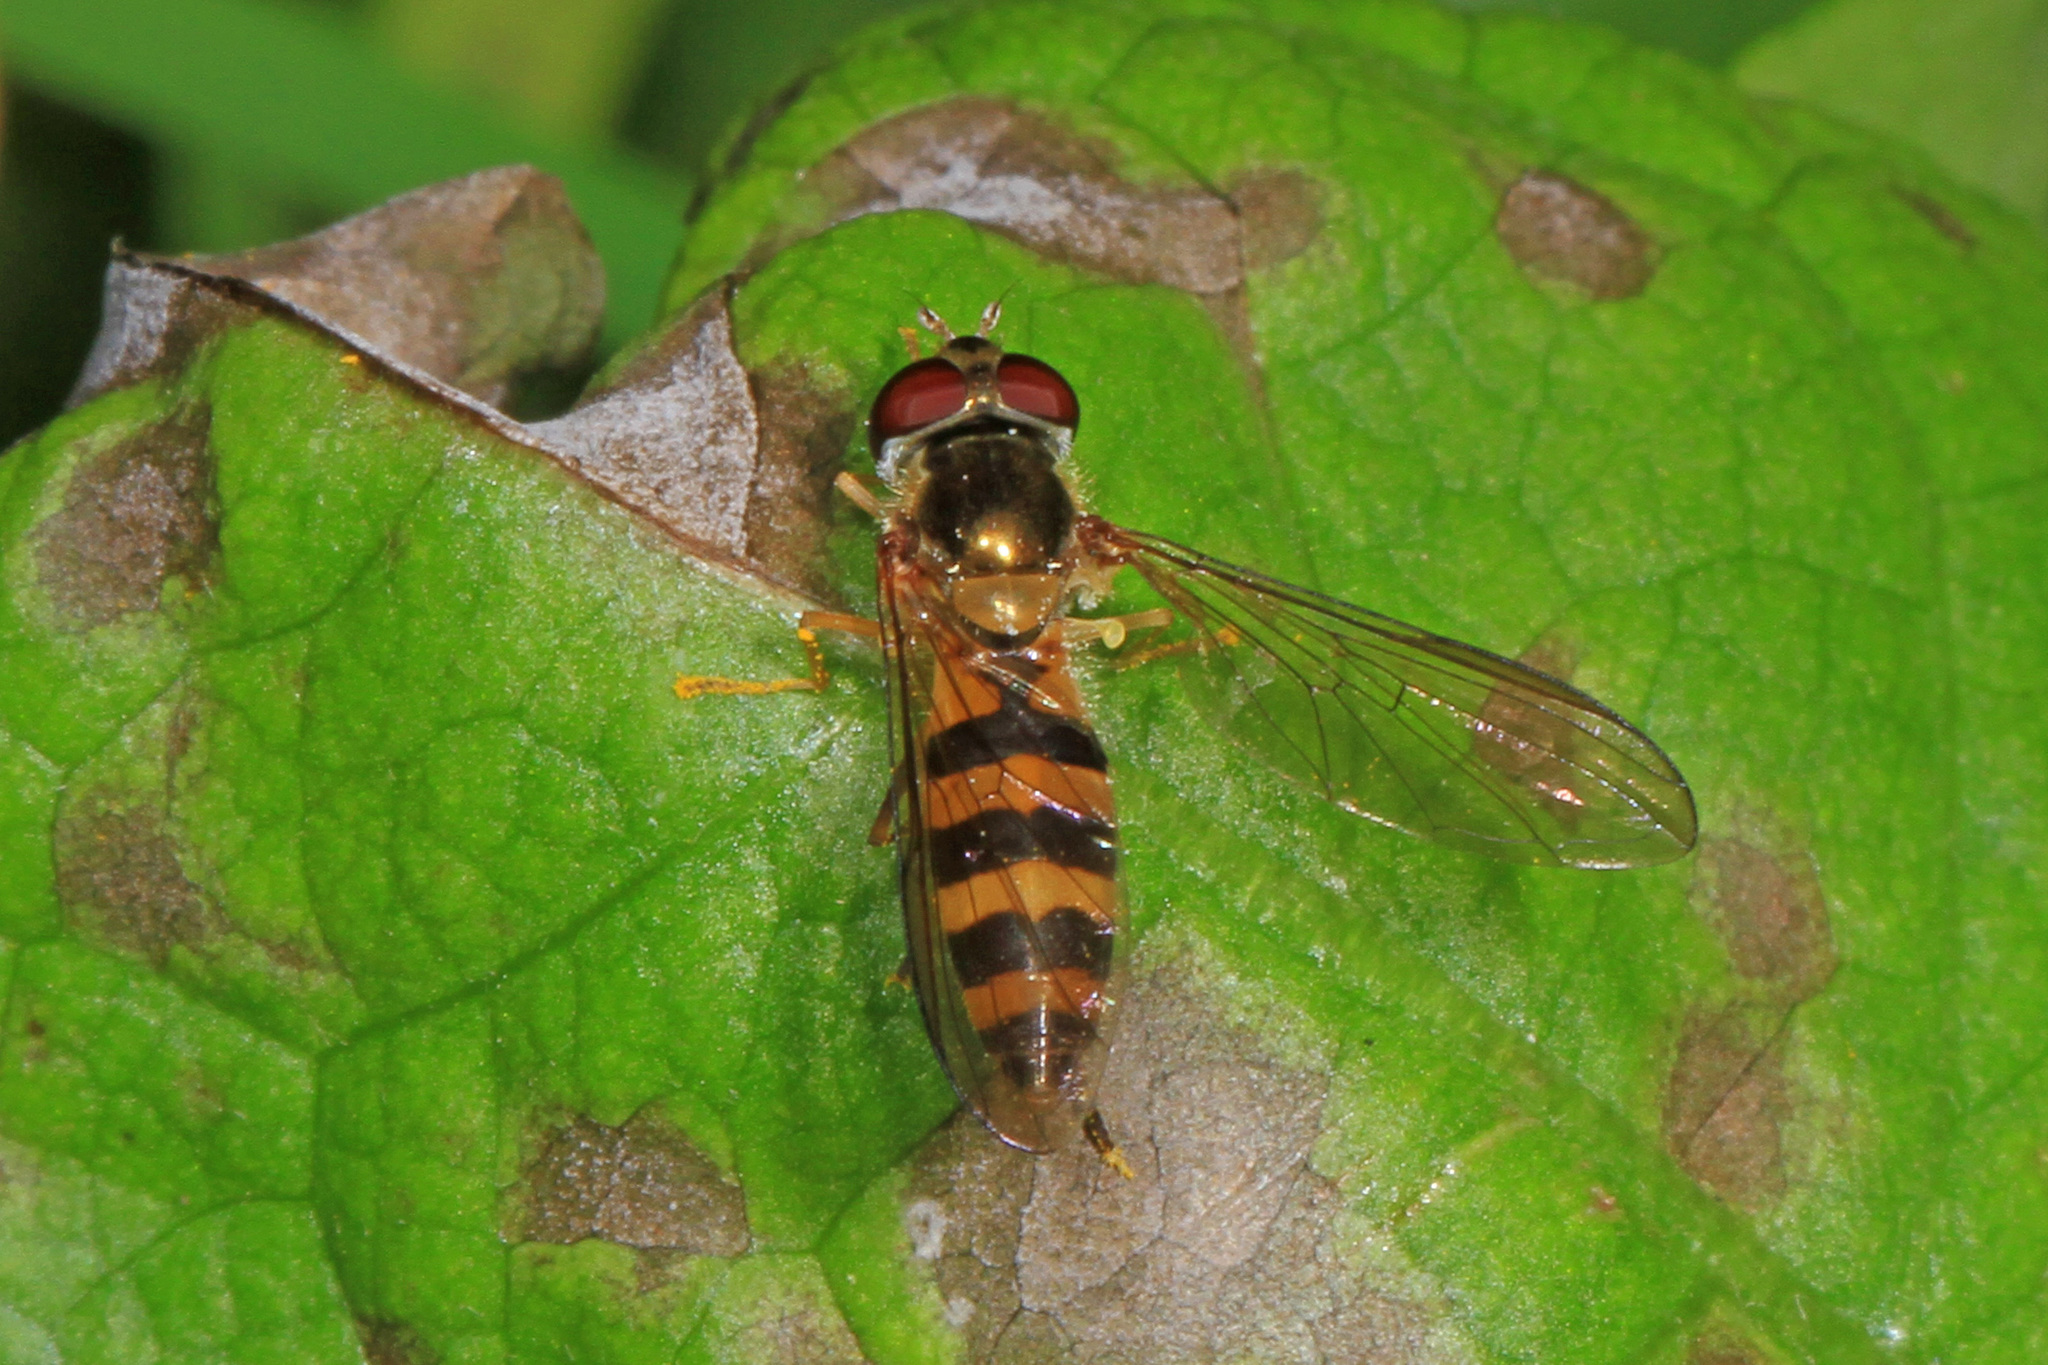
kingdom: Animalia
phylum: Arthropoda
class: Insecta
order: Diptera
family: Syrphidae
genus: Meliscaeva
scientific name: Meliscaeva cinctella
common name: American thintail fly
